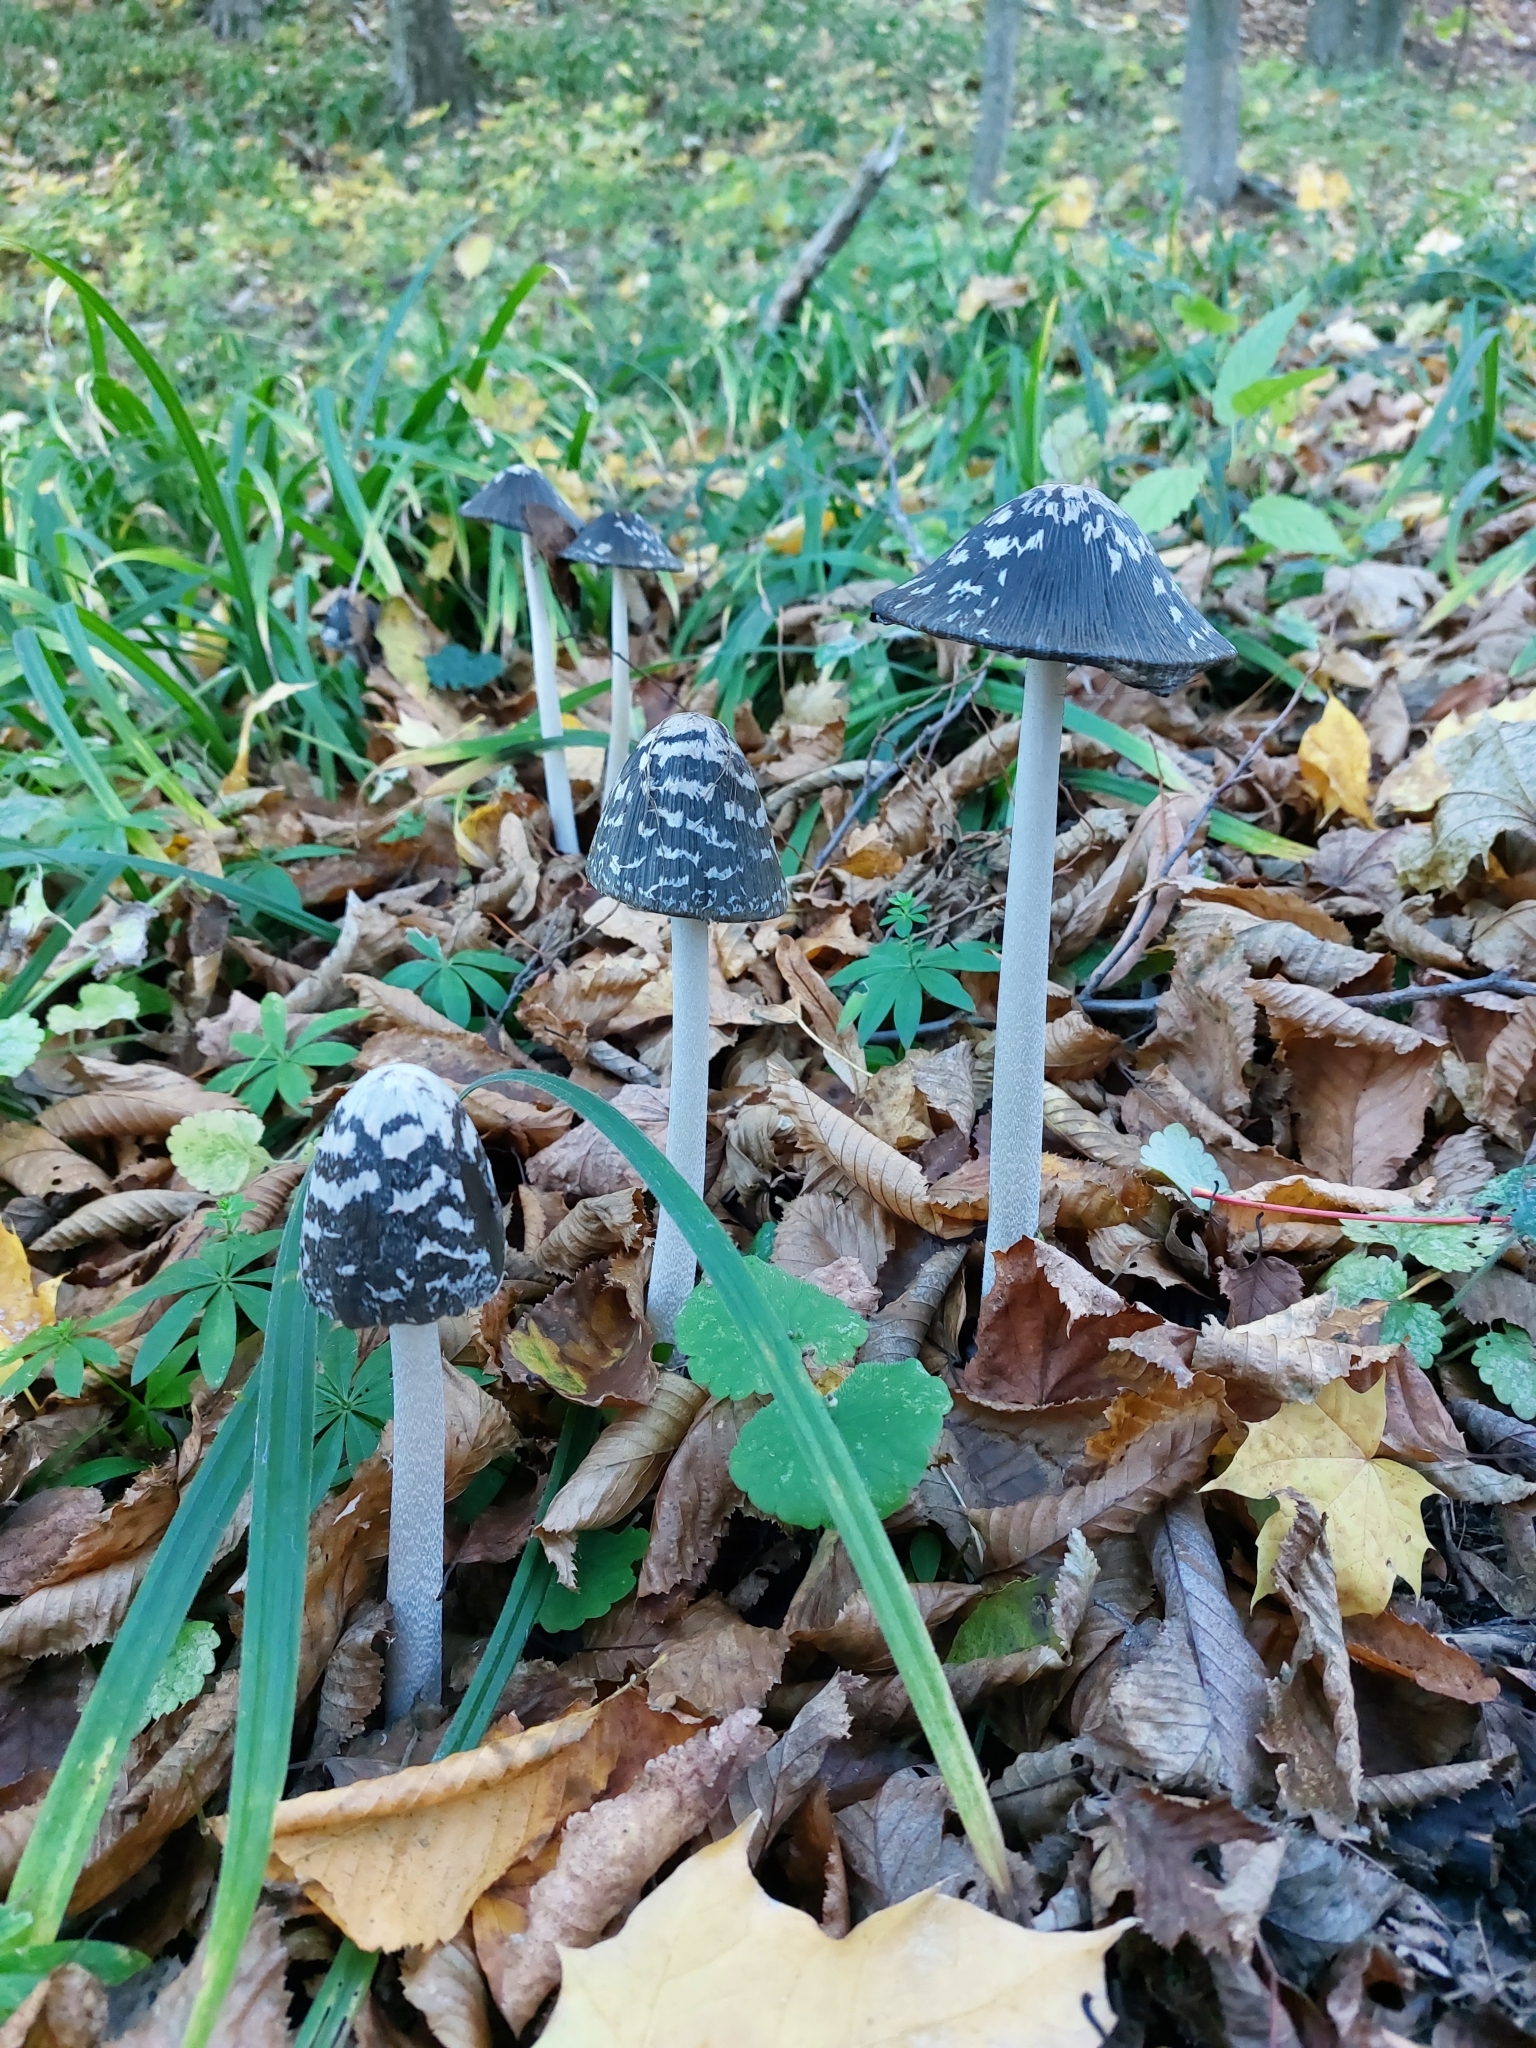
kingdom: Fungi
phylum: Basidiomycota
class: Agaricomycetes
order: Agaricales
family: Psathyrellaceae
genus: Coprinopsis
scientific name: Coprinopsis picacea
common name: Magpie inkcap
